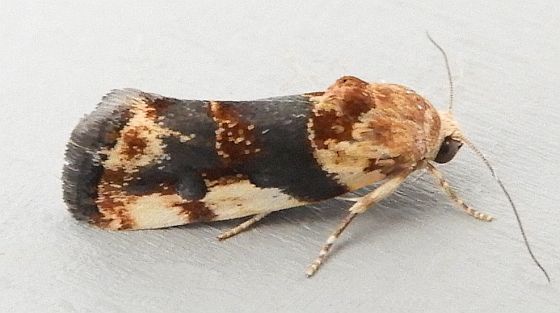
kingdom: Animalia
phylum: Arthropoda
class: Insecta
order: Lepidoptera
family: Noctuidae
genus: Acontia
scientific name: Acontia obatra
